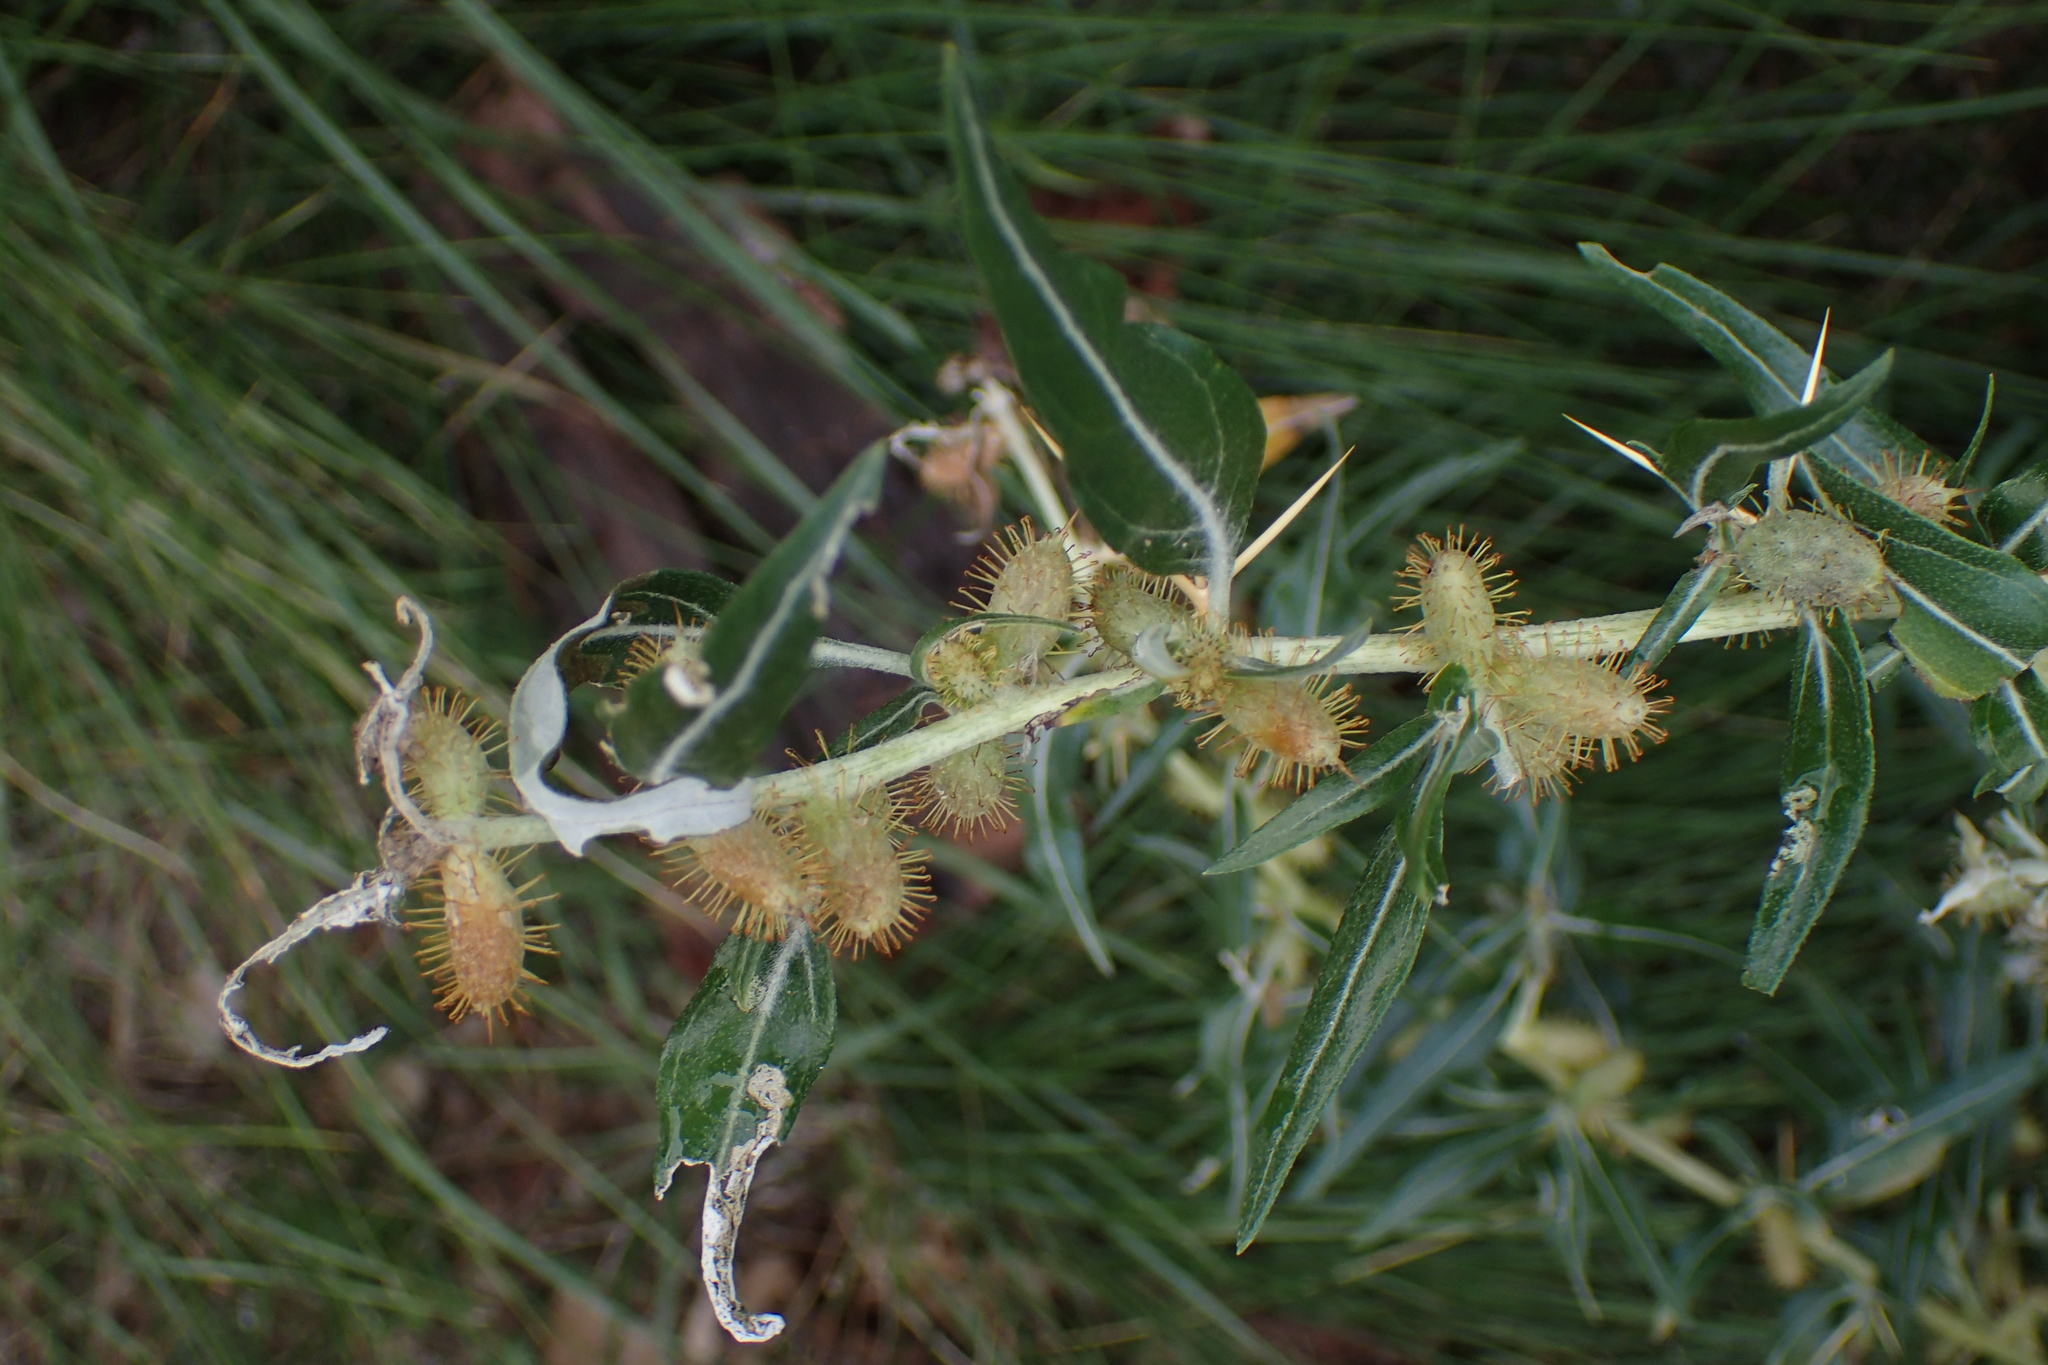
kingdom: Plantae
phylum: Tracheophyta
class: Magnoliopsida
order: Asterales
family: Asteraceae
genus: Xanthium
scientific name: Xanthium spinosum
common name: Spiny cocklebur
